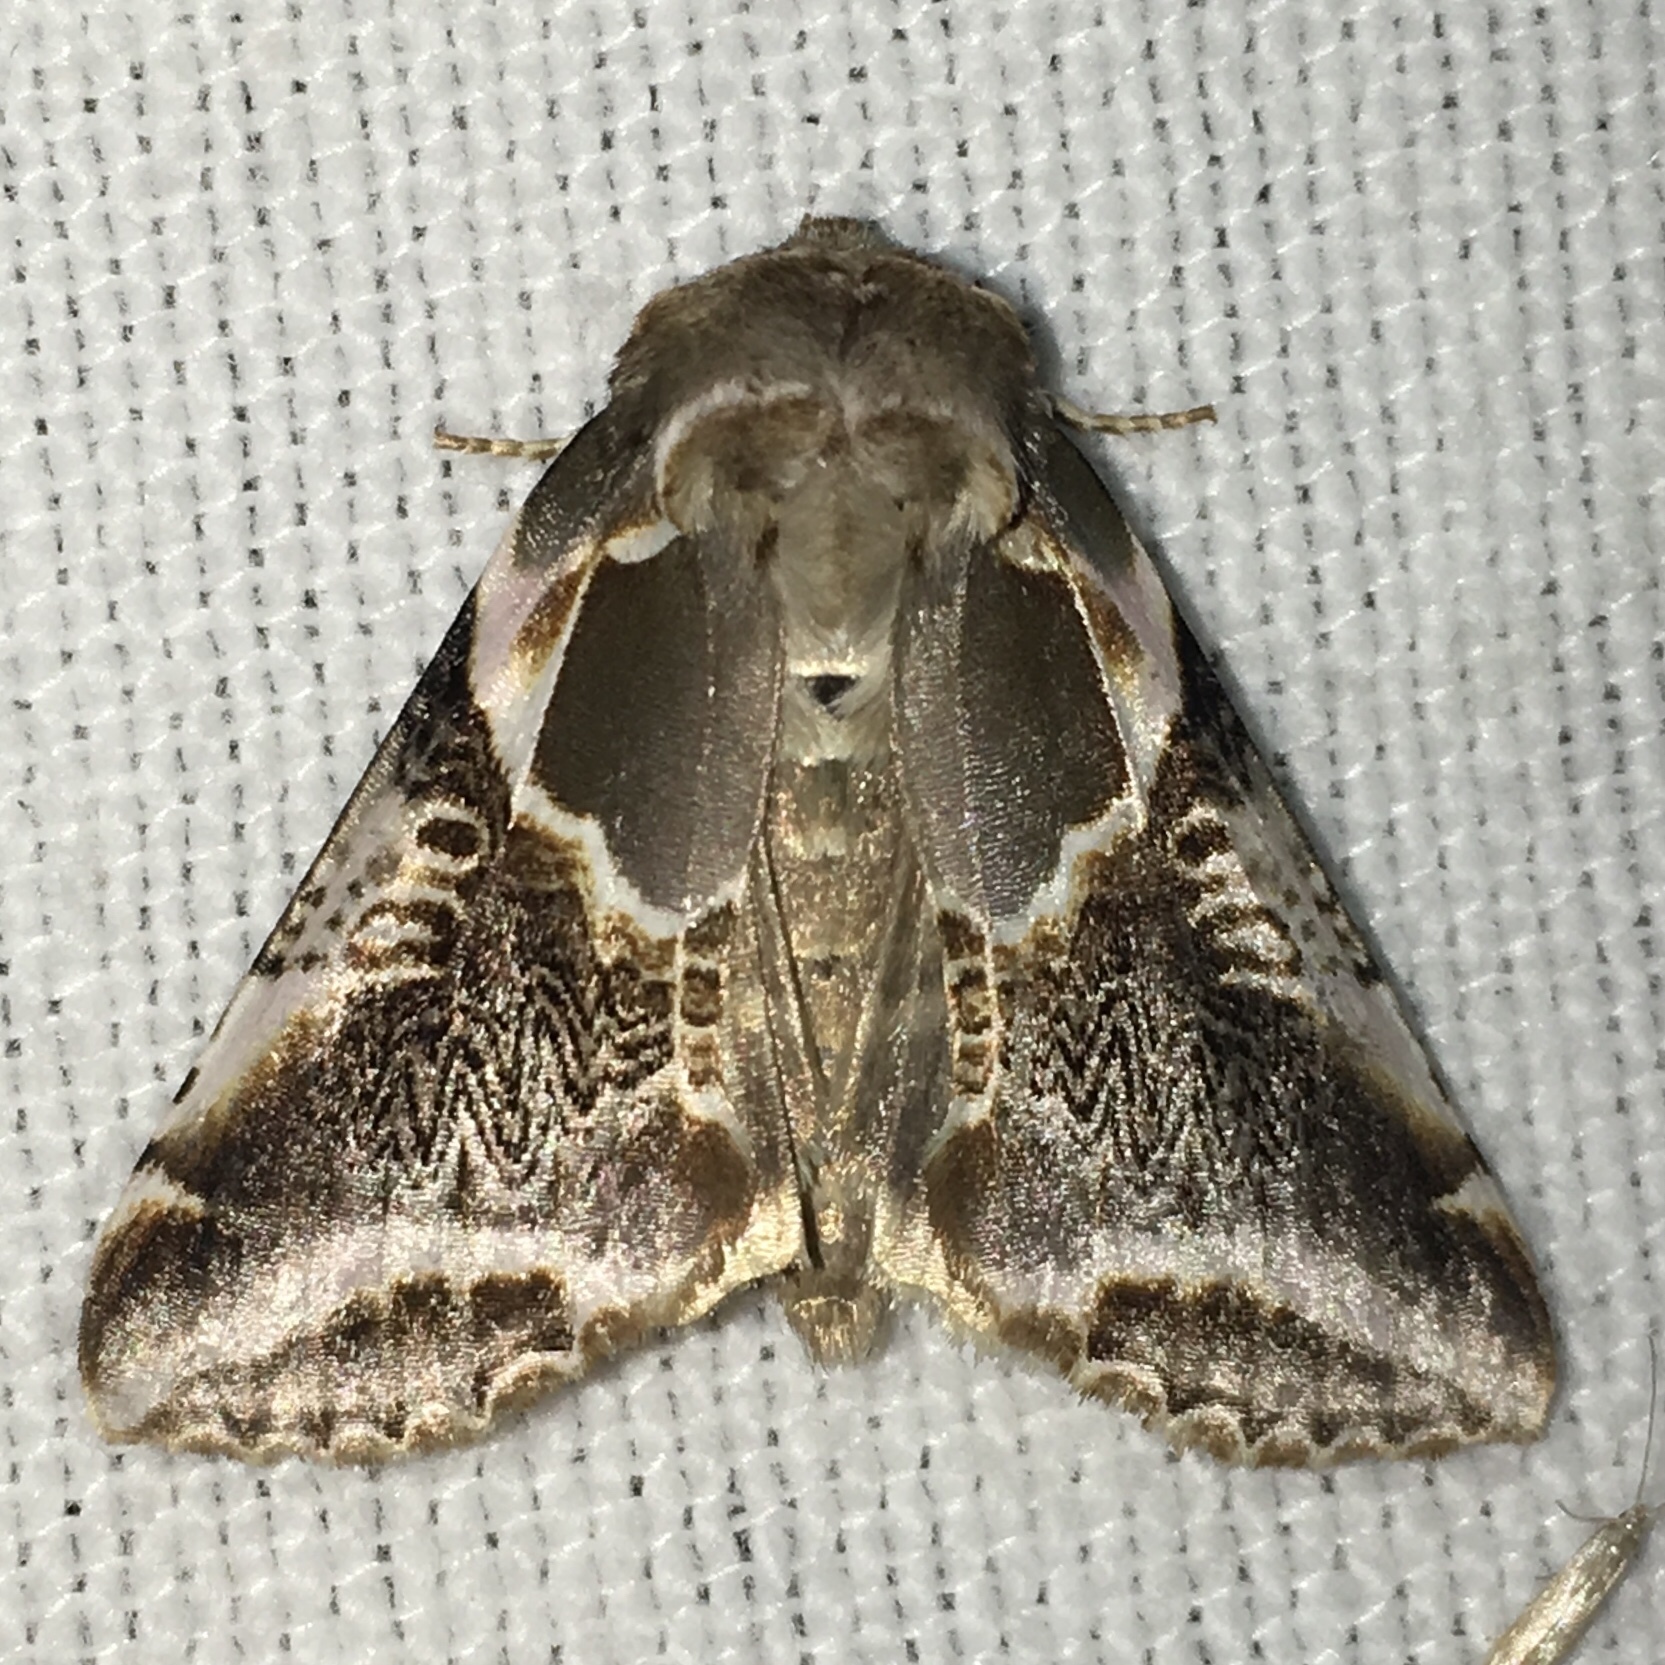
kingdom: Animalia
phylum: Arthropoda
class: Insecta
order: Lepidoptera
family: Drepanidae
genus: Habrosyne
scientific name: Habrosyne scripta
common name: Lettered habrosyne moth
